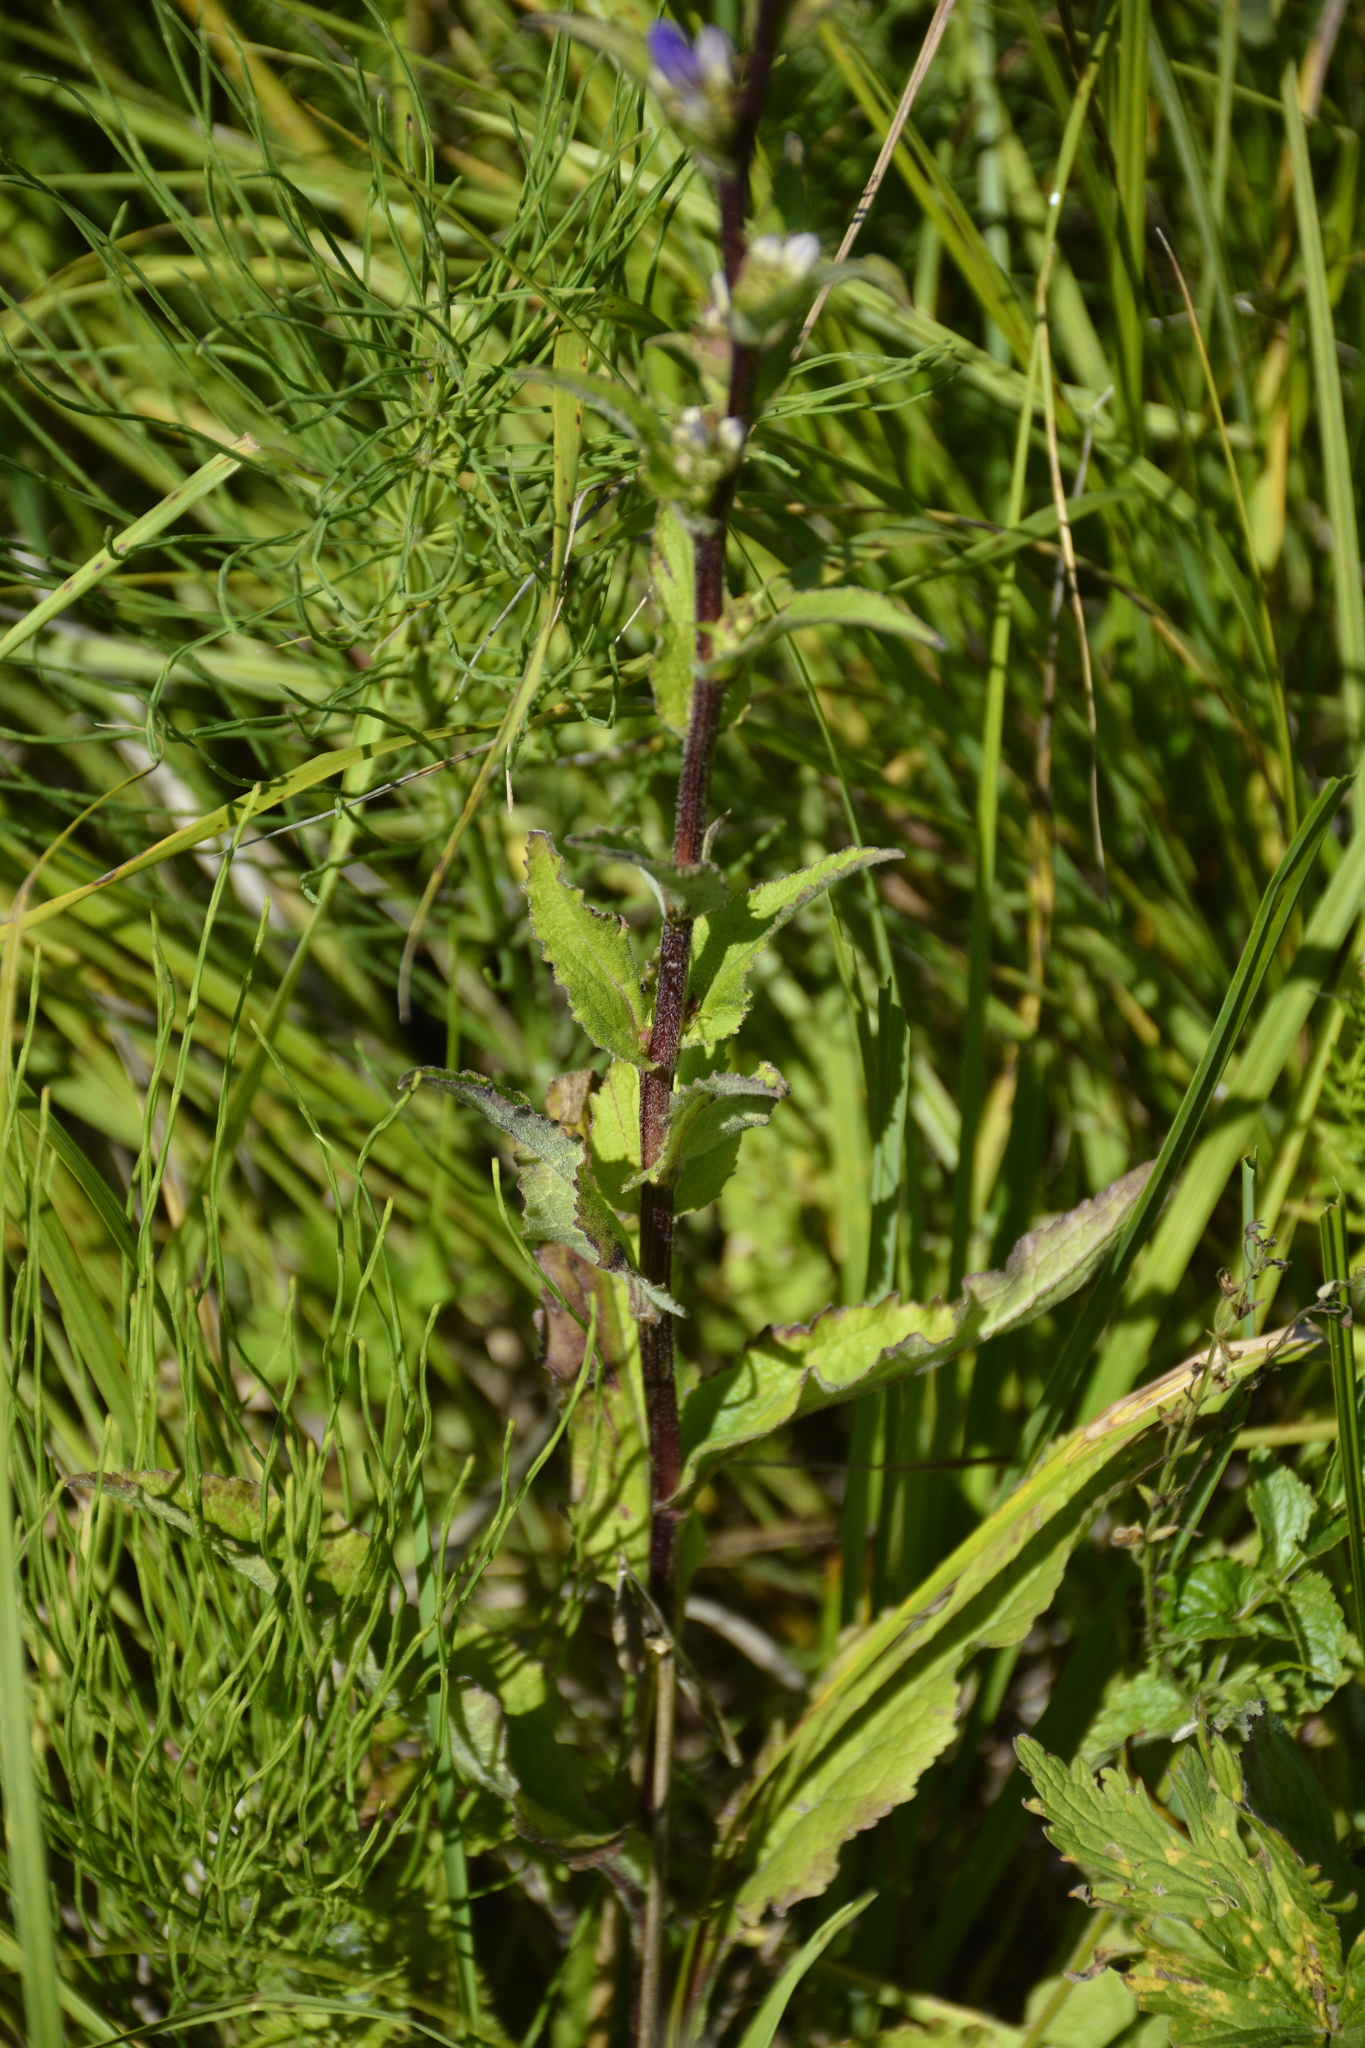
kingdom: Plantae
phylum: Tracheophyta
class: Magnoliopsida
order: Asterales
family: Campanulaceae
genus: Campanula
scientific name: Campanula glomerata
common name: Clustered bellflower
